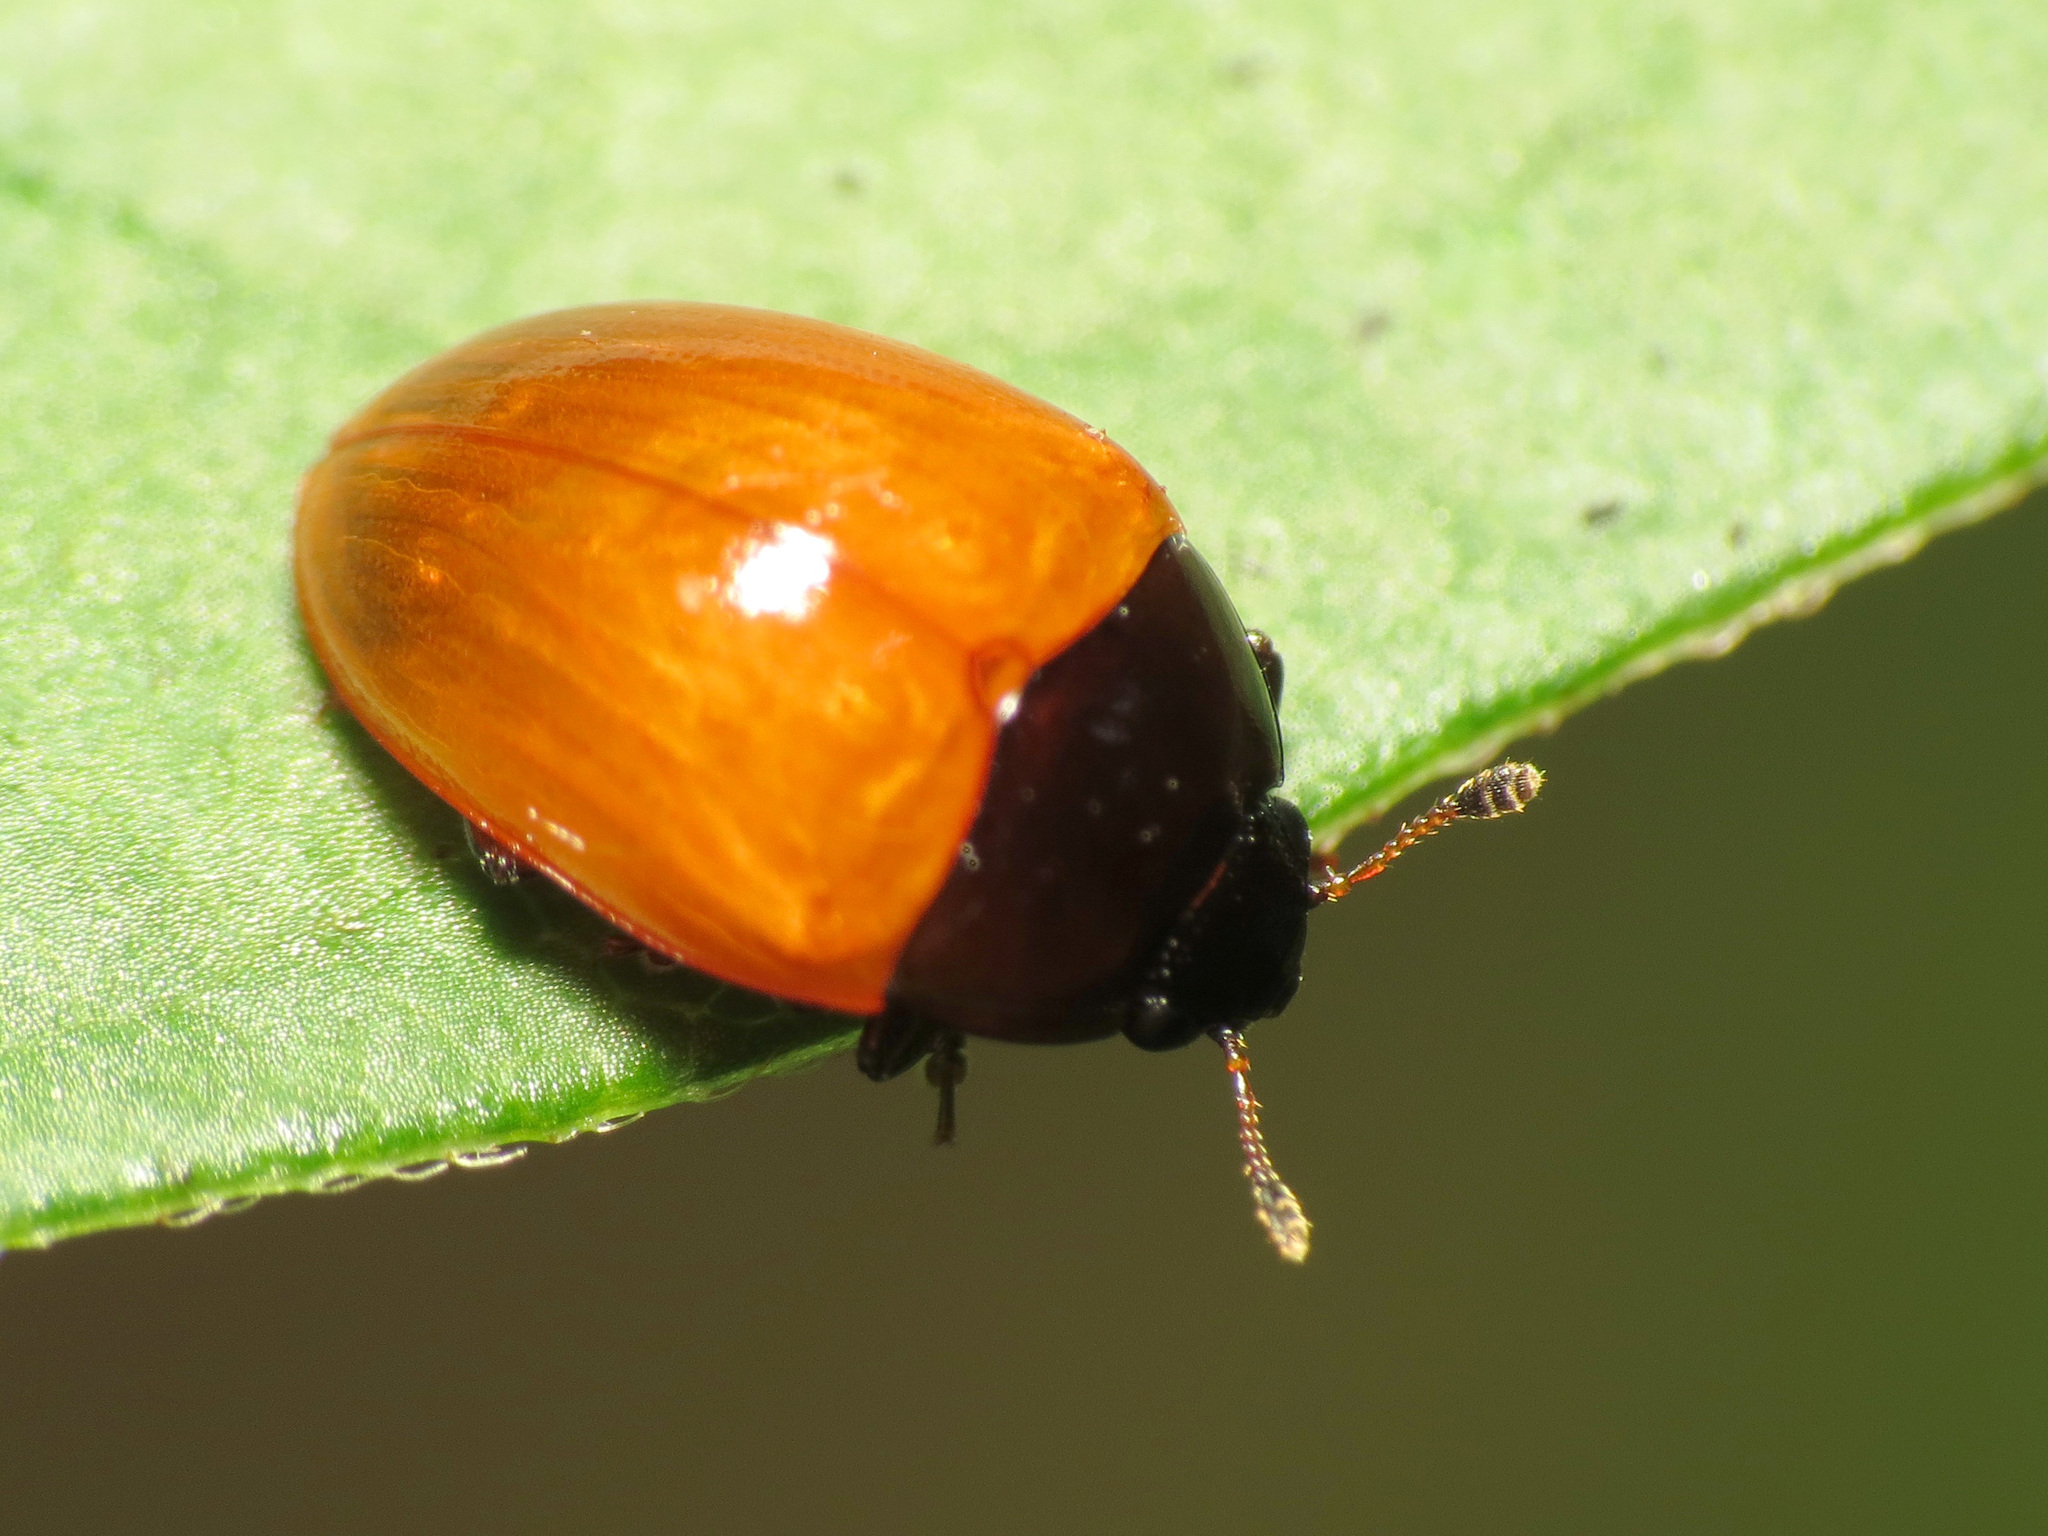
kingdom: Animalia
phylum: Arthropoda
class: Insecta
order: Coleoptera
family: Erotylidae
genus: Tritoma
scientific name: Tritoma sanguinipennis
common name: Red-winged tritoma
